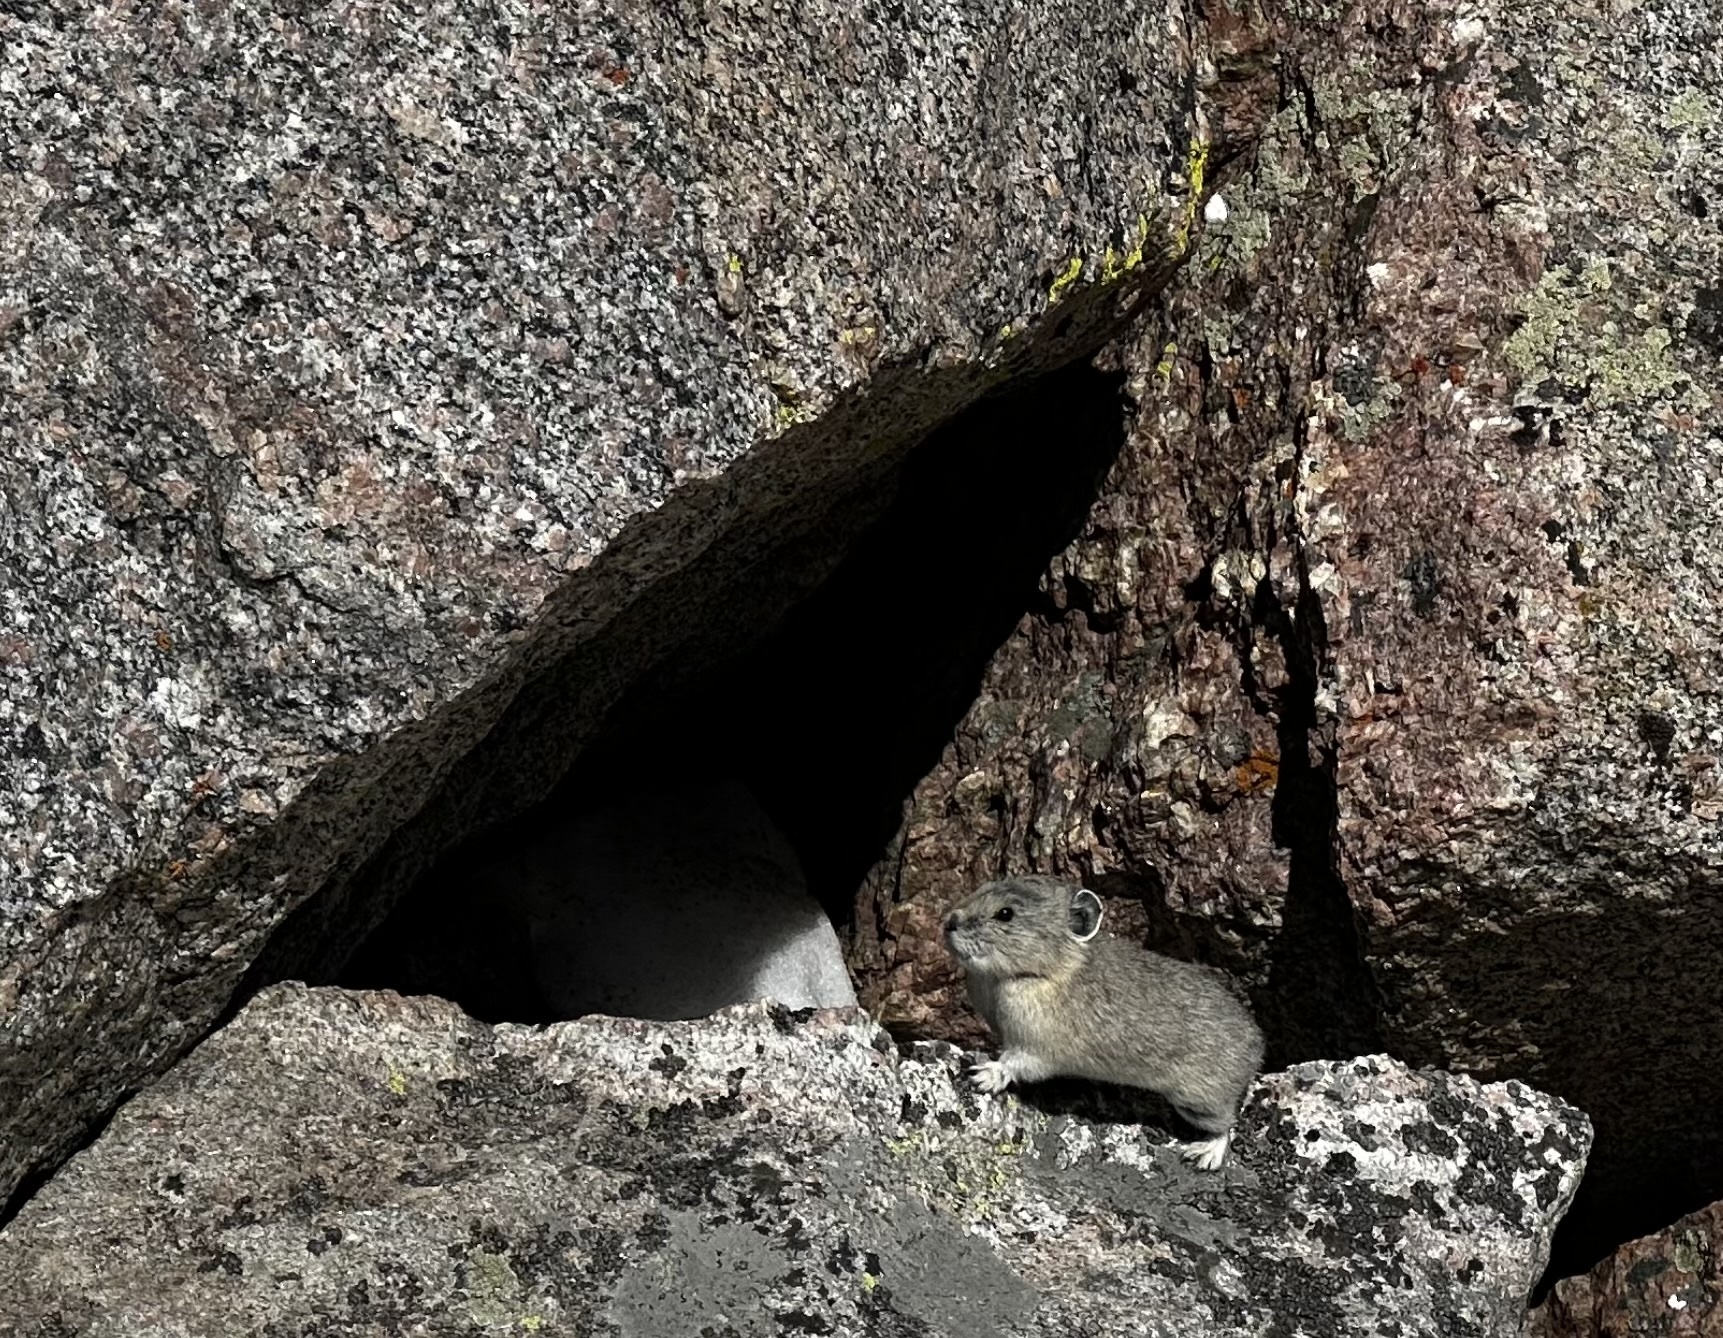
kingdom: Animalia
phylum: Chordata
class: Mammalia
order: Lagomorpha
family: Ochotonidae
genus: Ochotona
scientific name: Ochotona princeps
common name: American pika
